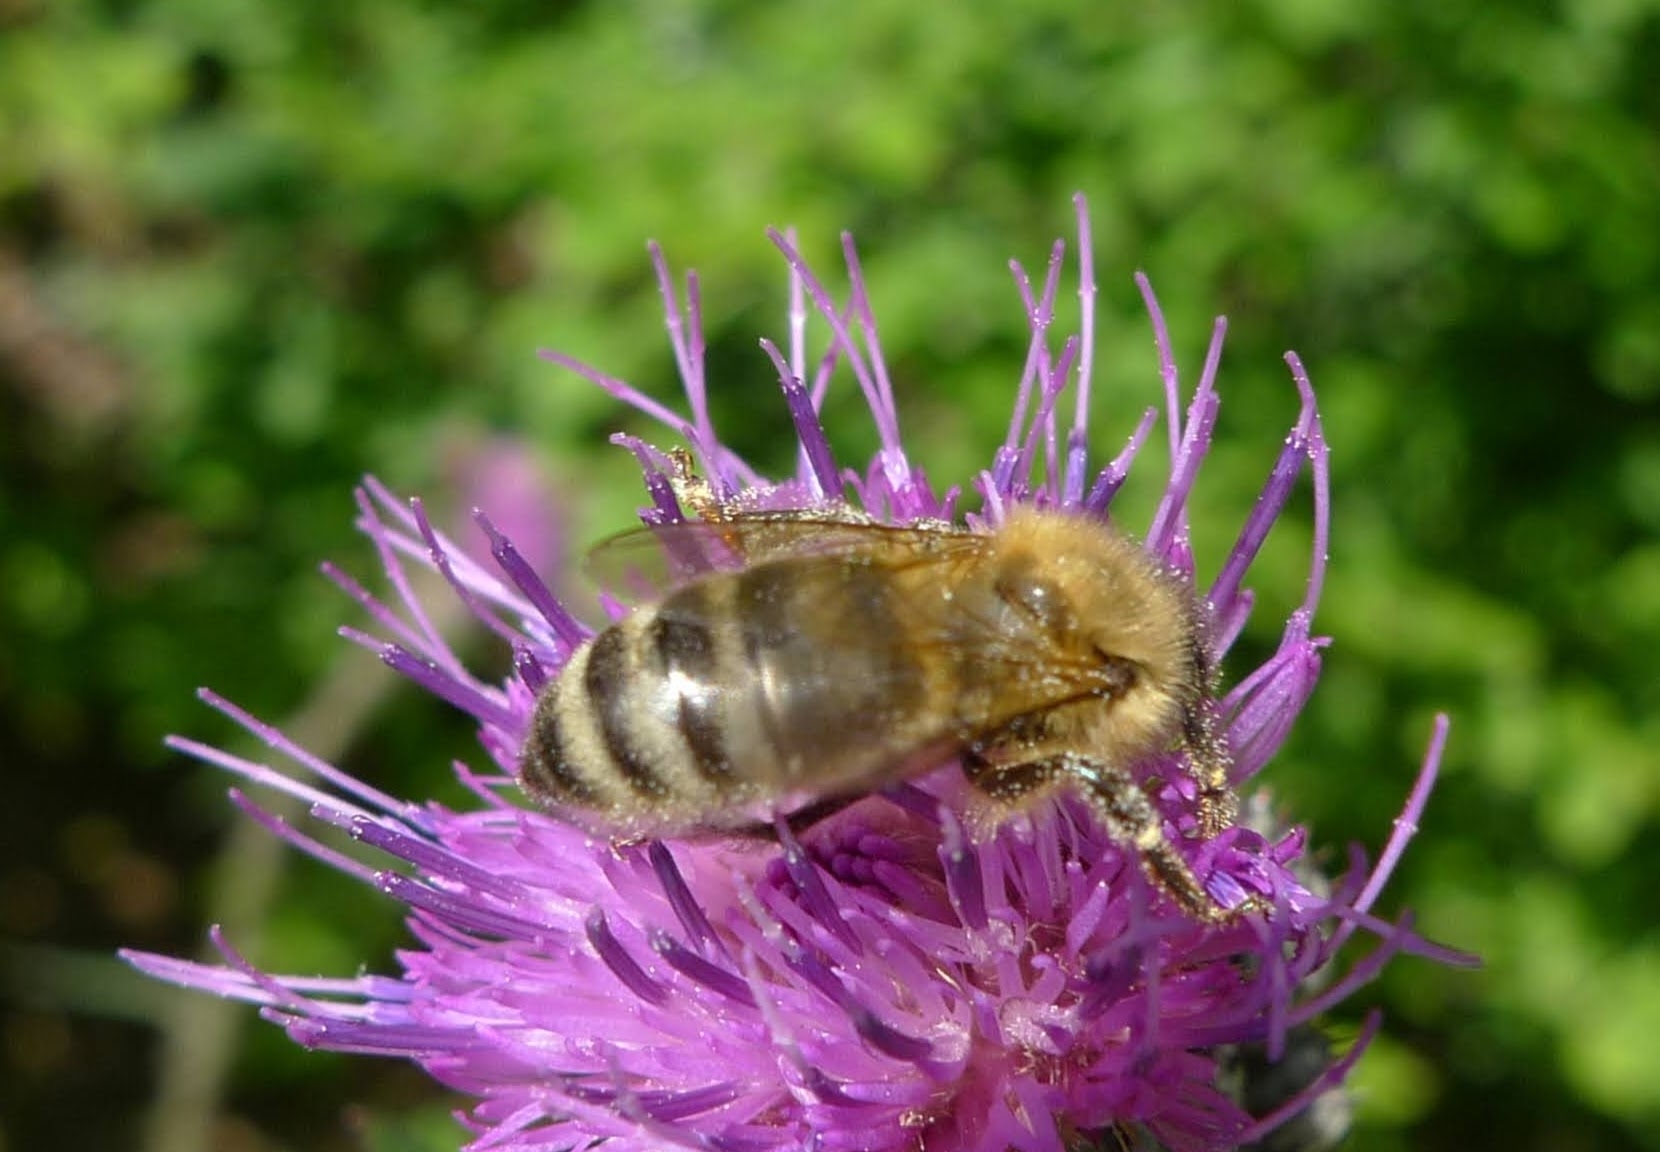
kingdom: Animalia
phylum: Arthropoda
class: Insecta
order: Hymenoptera
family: Apidae
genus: Apis
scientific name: Apis mellifera
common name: Honey bee
